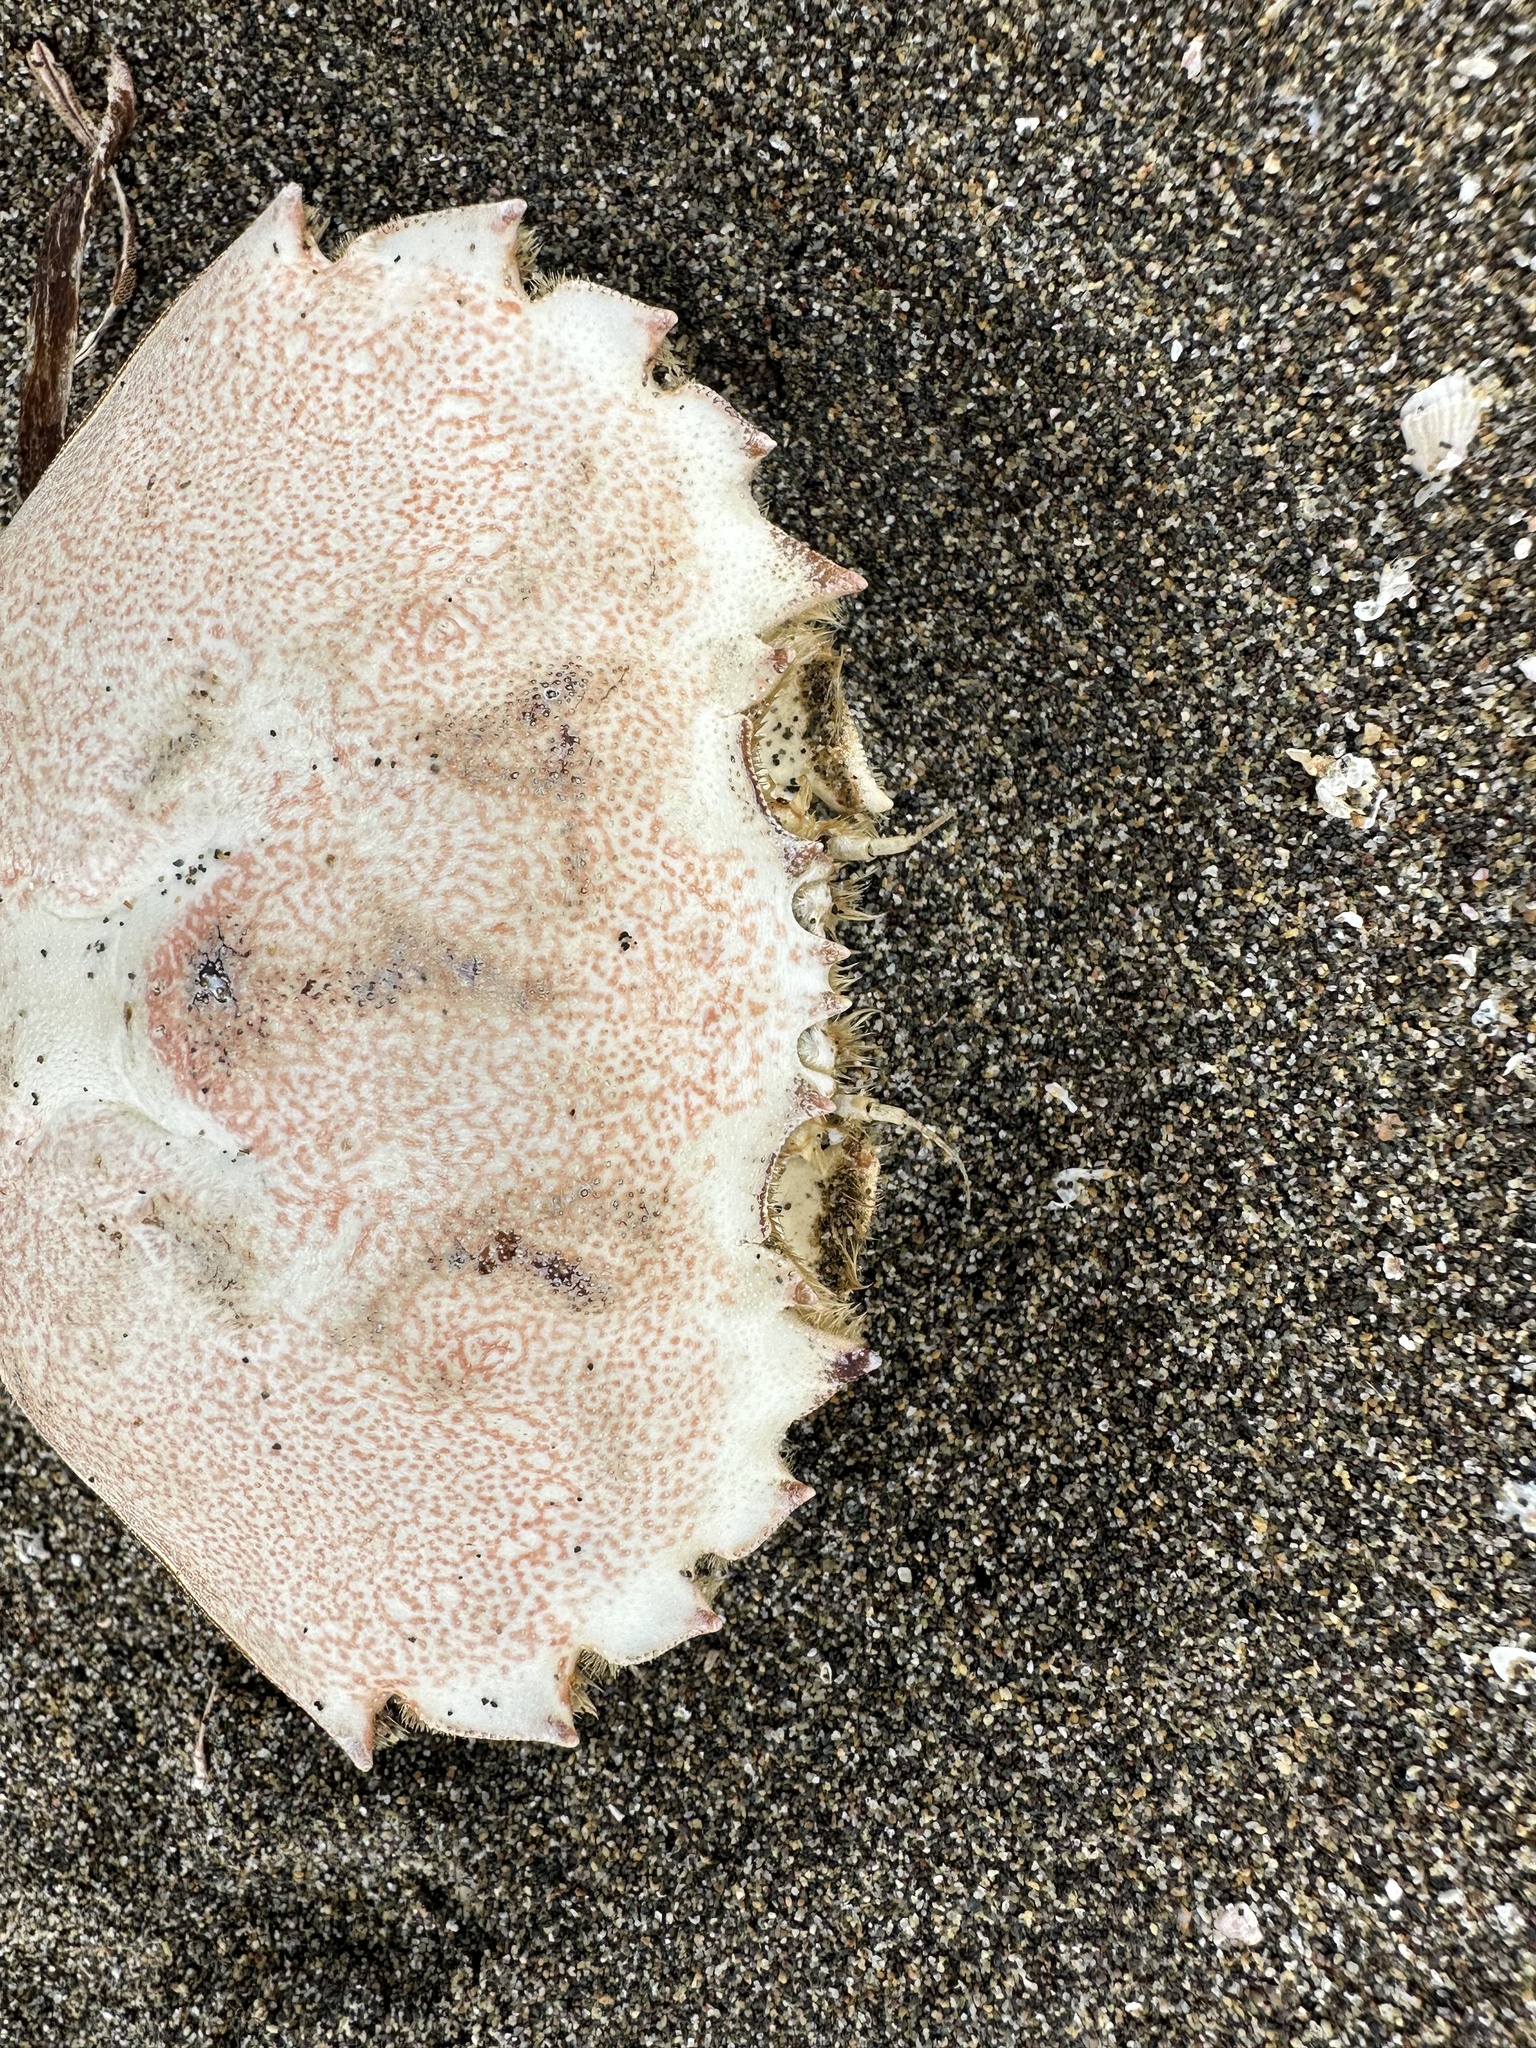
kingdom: Animalia
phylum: Arthropoda
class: Malacostraca
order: Decapoda
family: Ovalipidae
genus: Ovalipes
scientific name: Ovalipes trimaculatus
